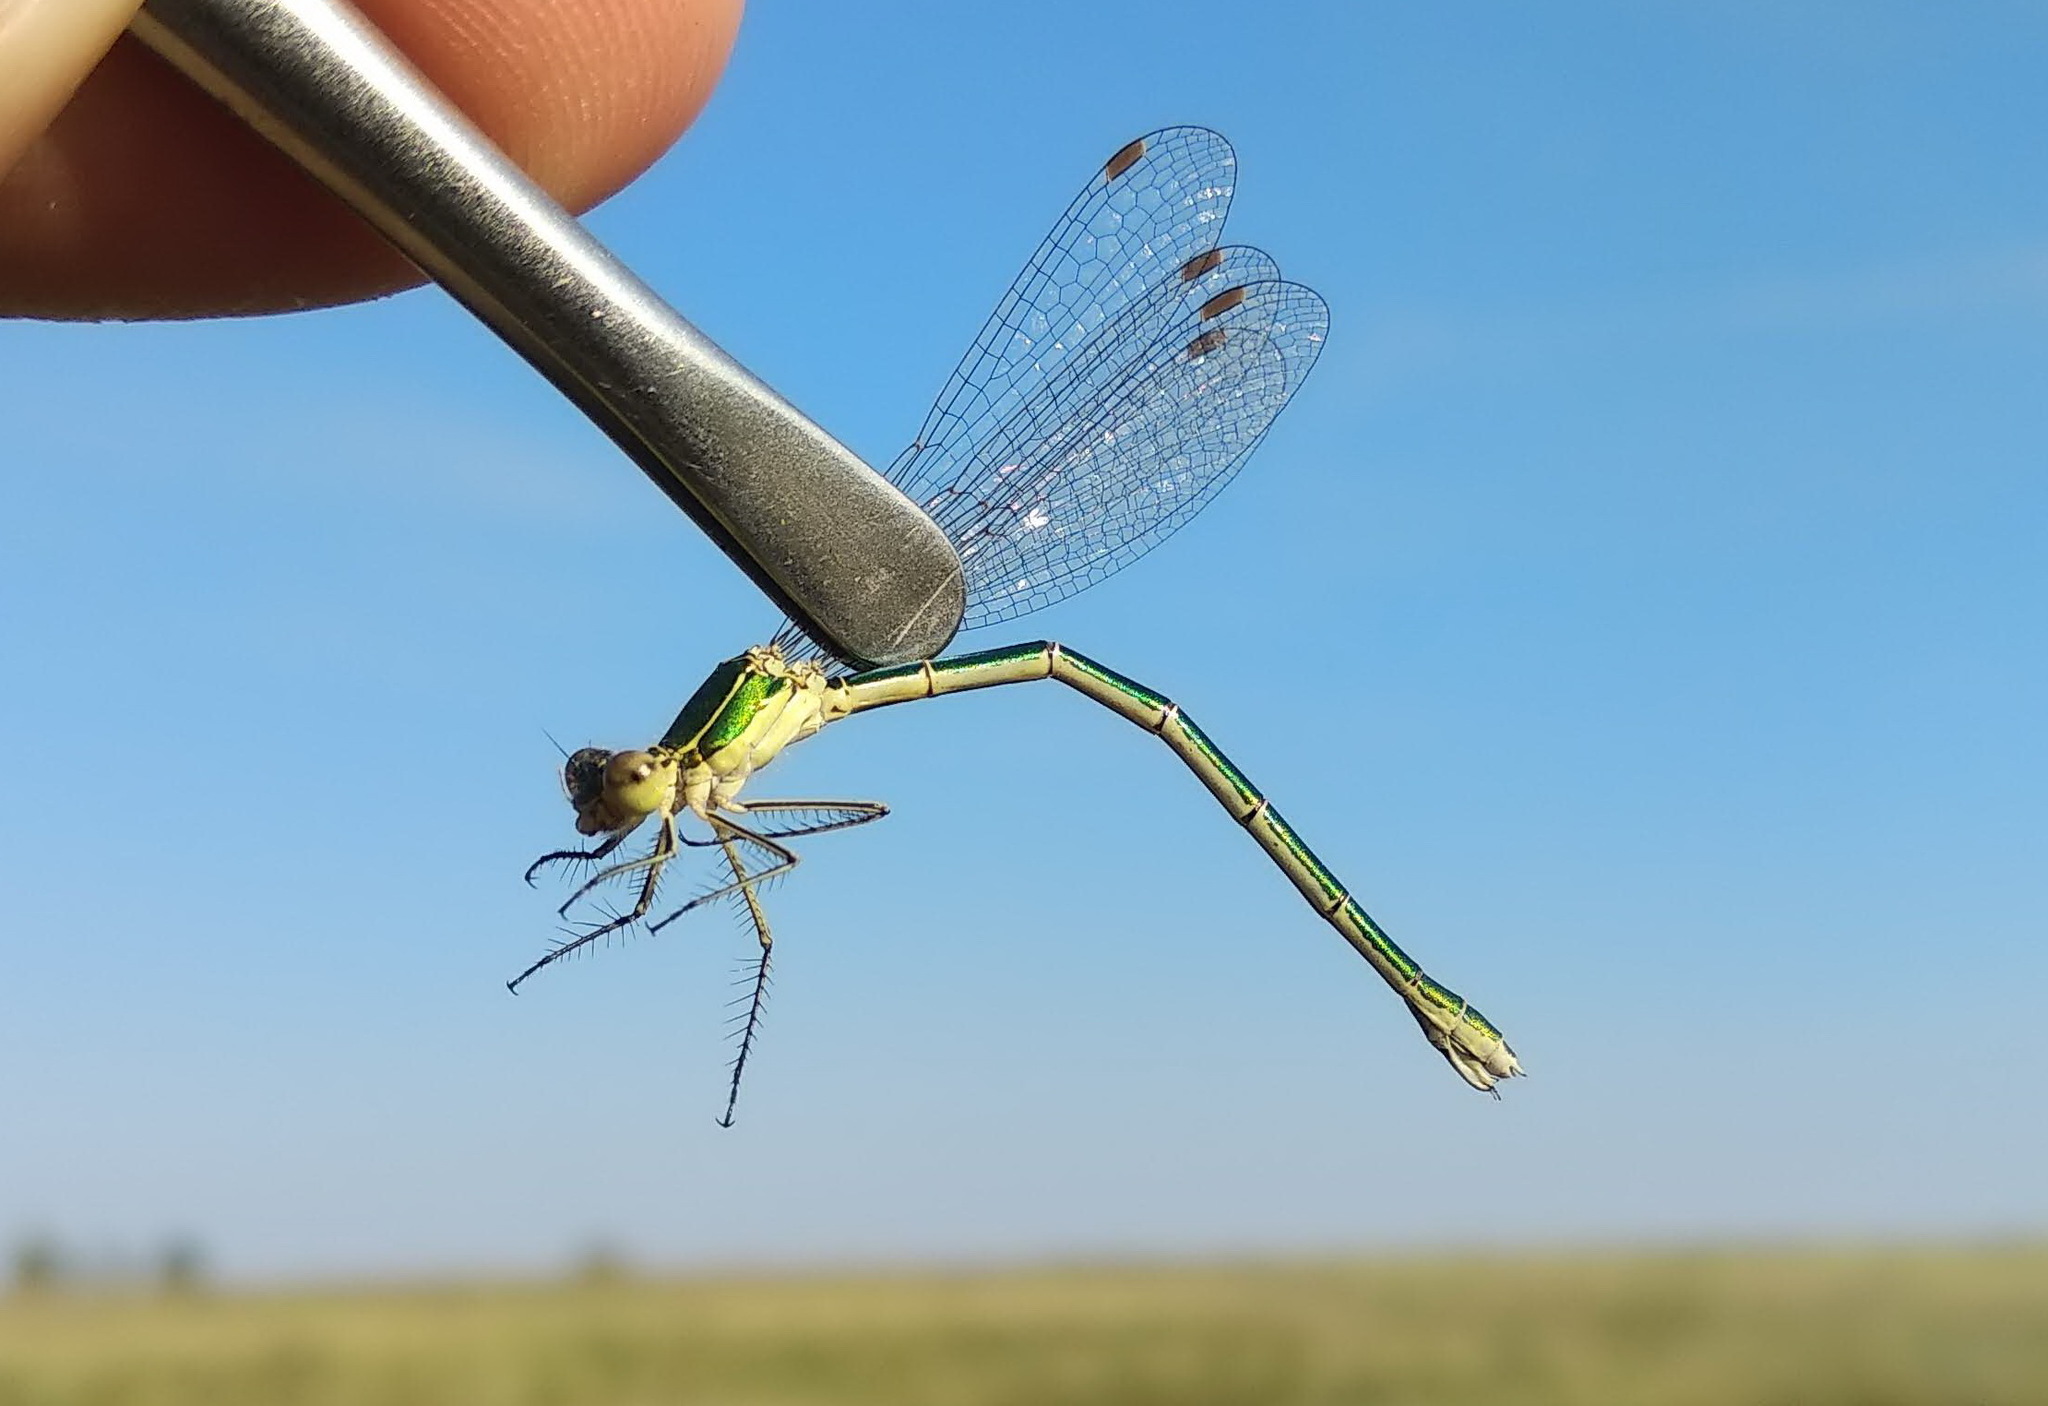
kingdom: Animalia
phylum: Arthropoda
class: Insecta
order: Odonata
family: Lestidae
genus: Lestes
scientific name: Lestes virens
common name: Small emerald spreadwing
